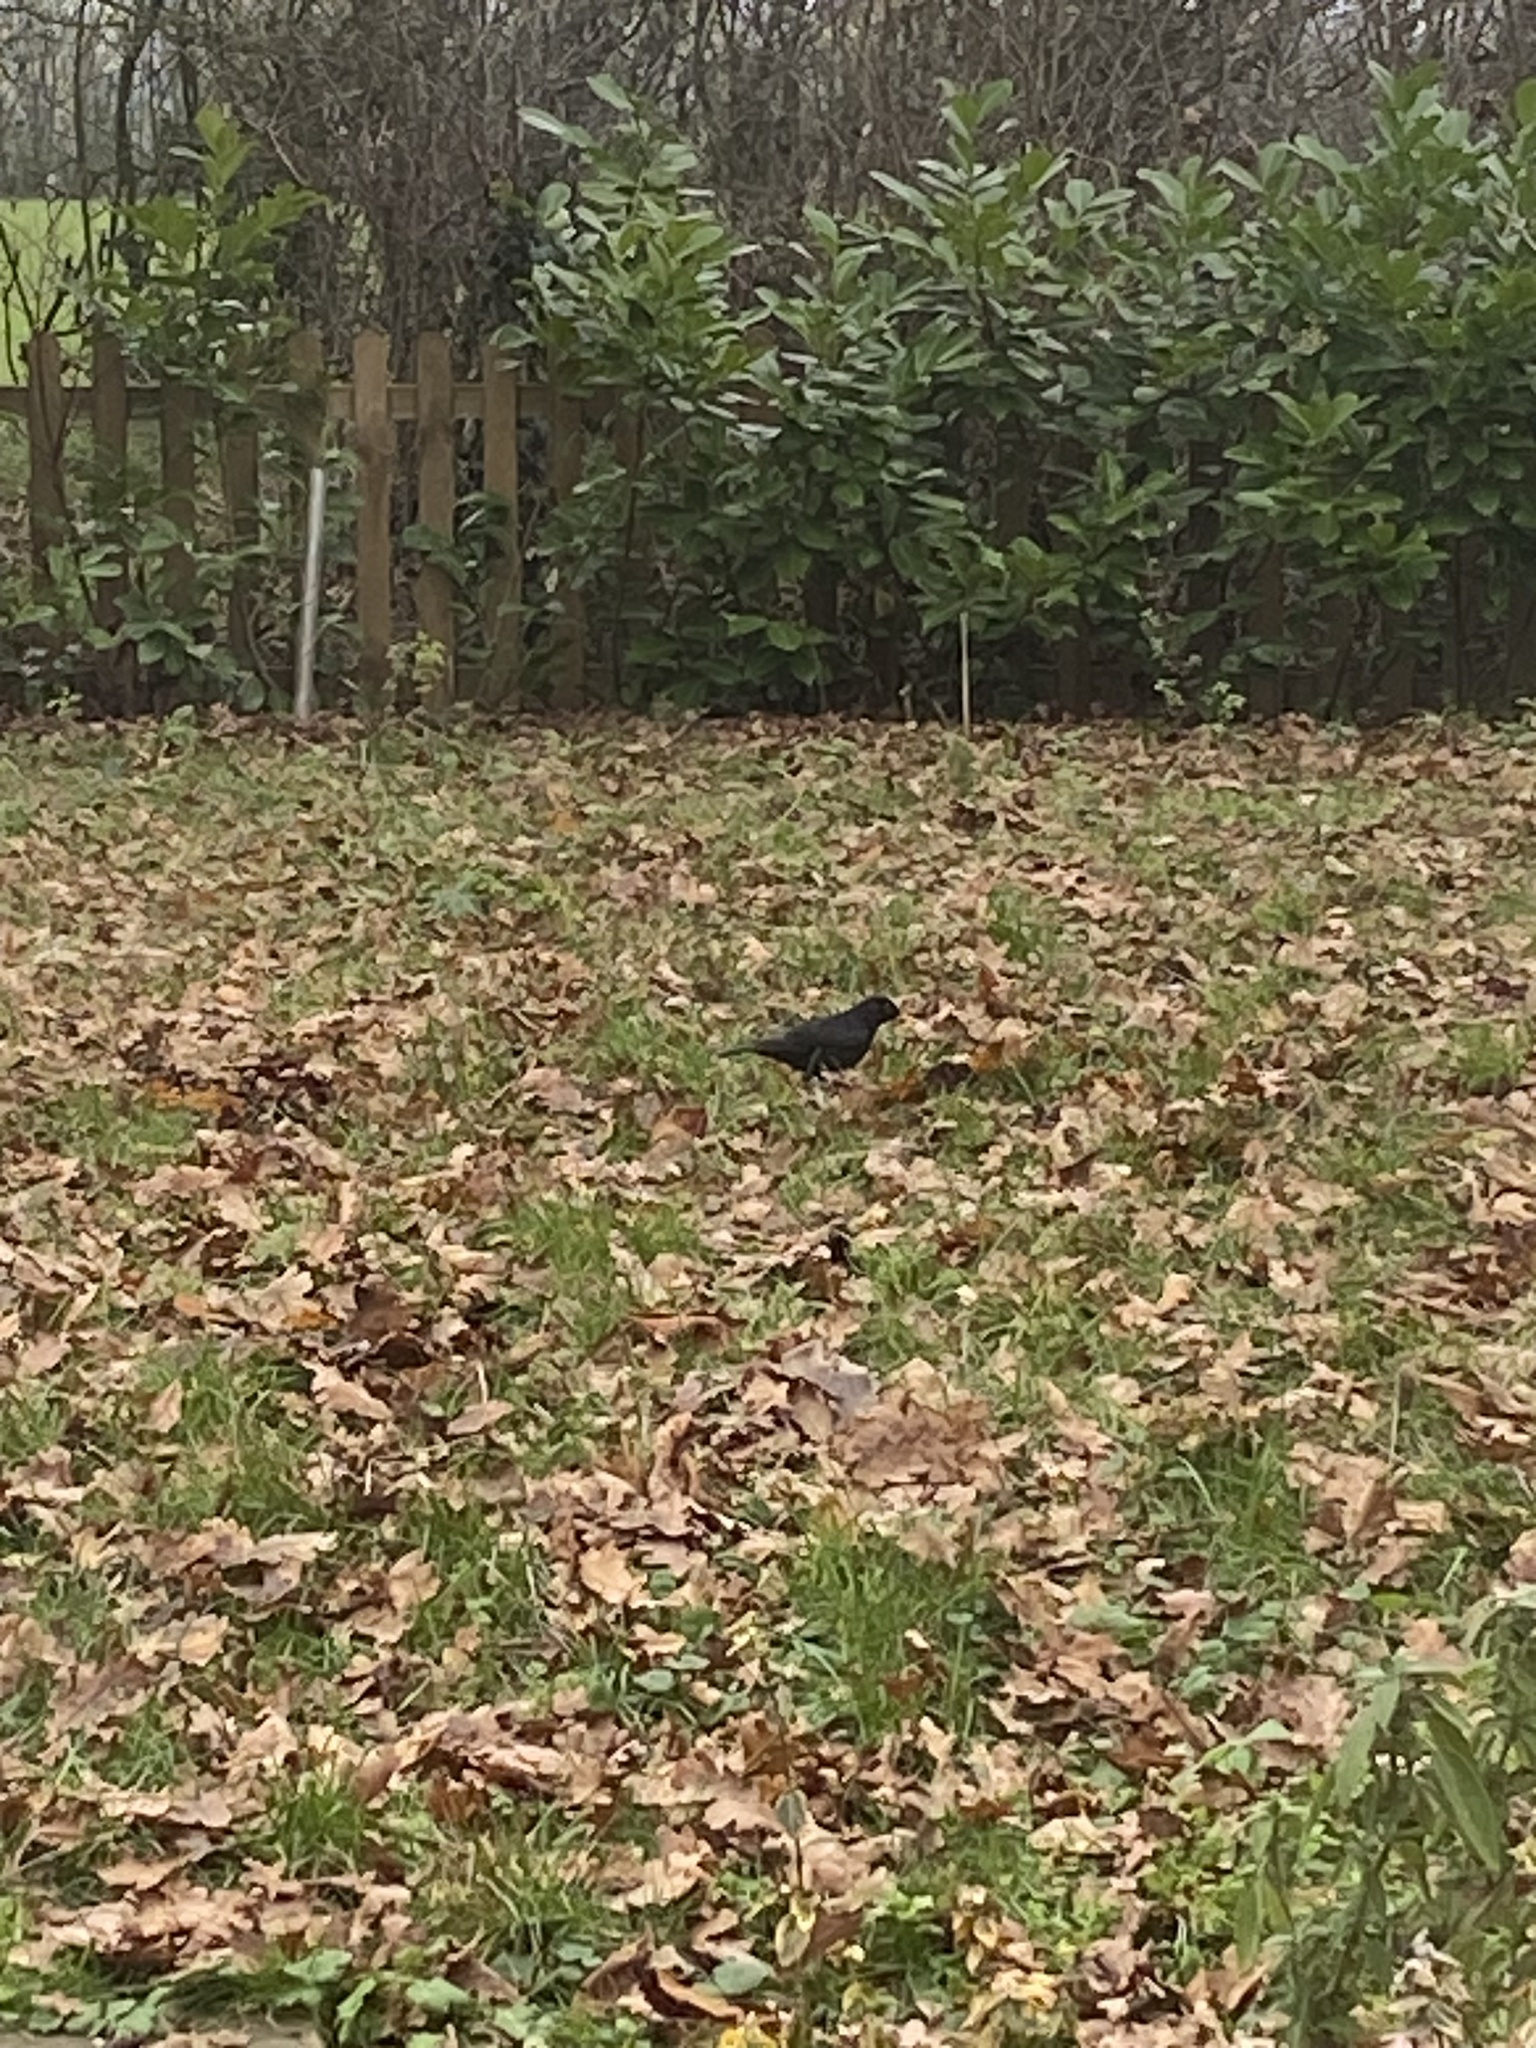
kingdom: Animalia
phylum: Chordata
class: Aves
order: Passeriformes
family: Turdidae
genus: Turdus
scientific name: Turdus merula
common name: Common blackbird
